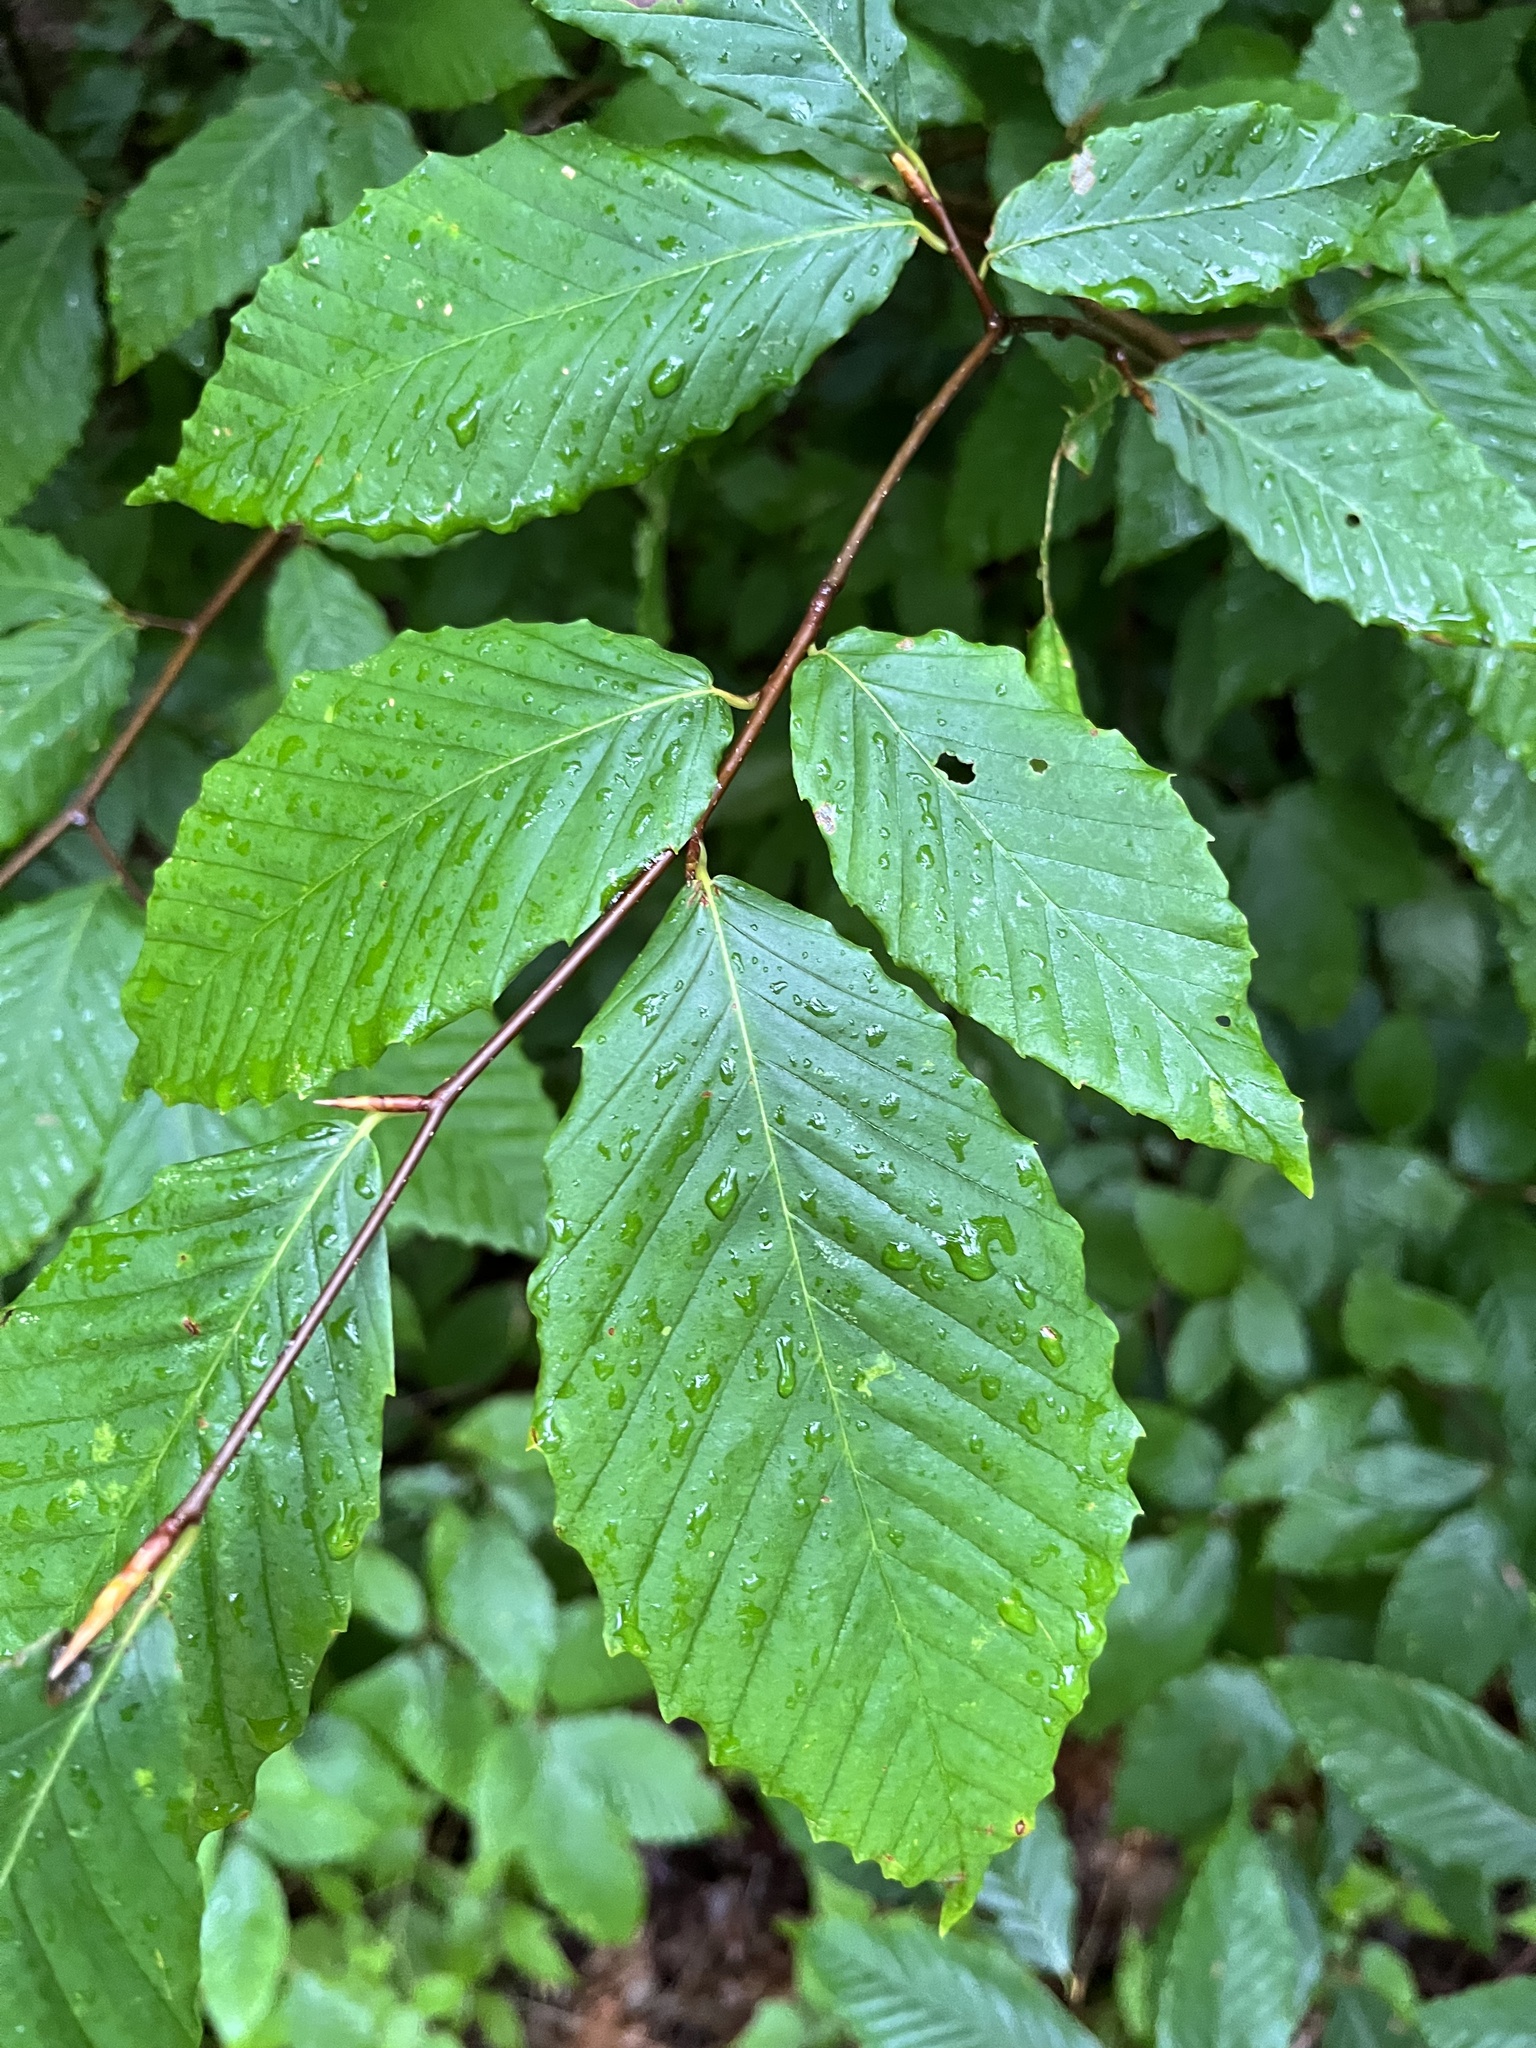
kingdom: Plantae
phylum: Tracheophyta
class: Magnoliopsida
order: Fagales
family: Fagaceae
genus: Fagus
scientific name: Fagus grandifolia
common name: American beech
